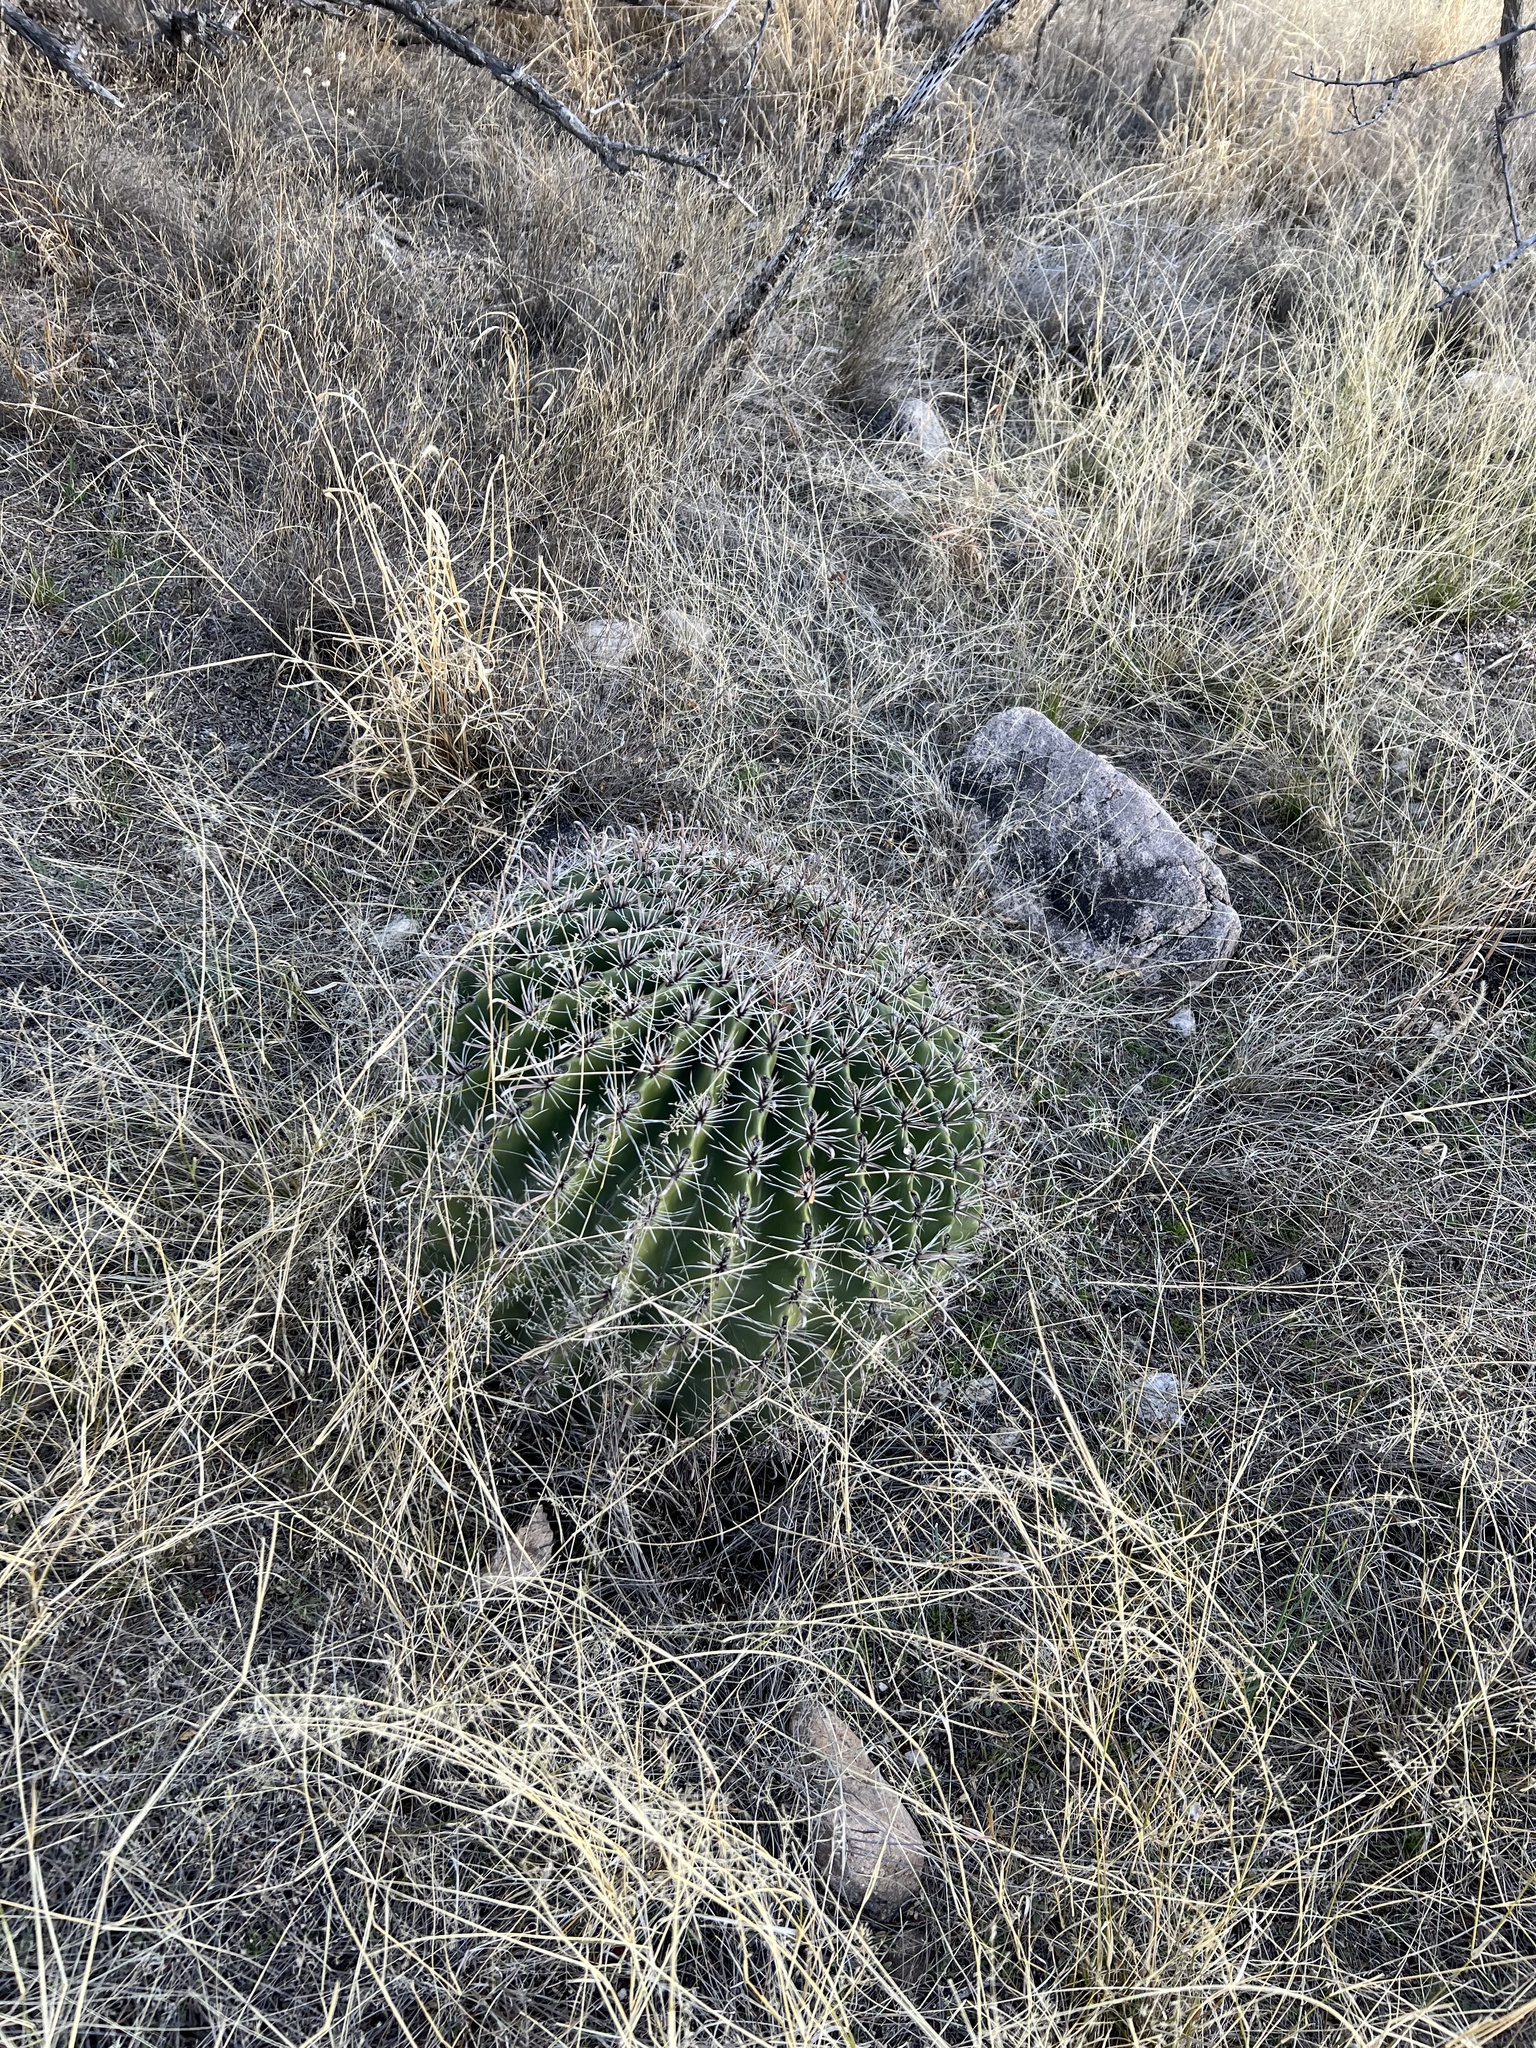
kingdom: Plantae
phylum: Tracheophyta
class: Magnoliopsida
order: Caryophyllales
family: Cactaceae
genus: Ferocactus
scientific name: Ferocactus wislizeni
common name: Candy barrel cactus
